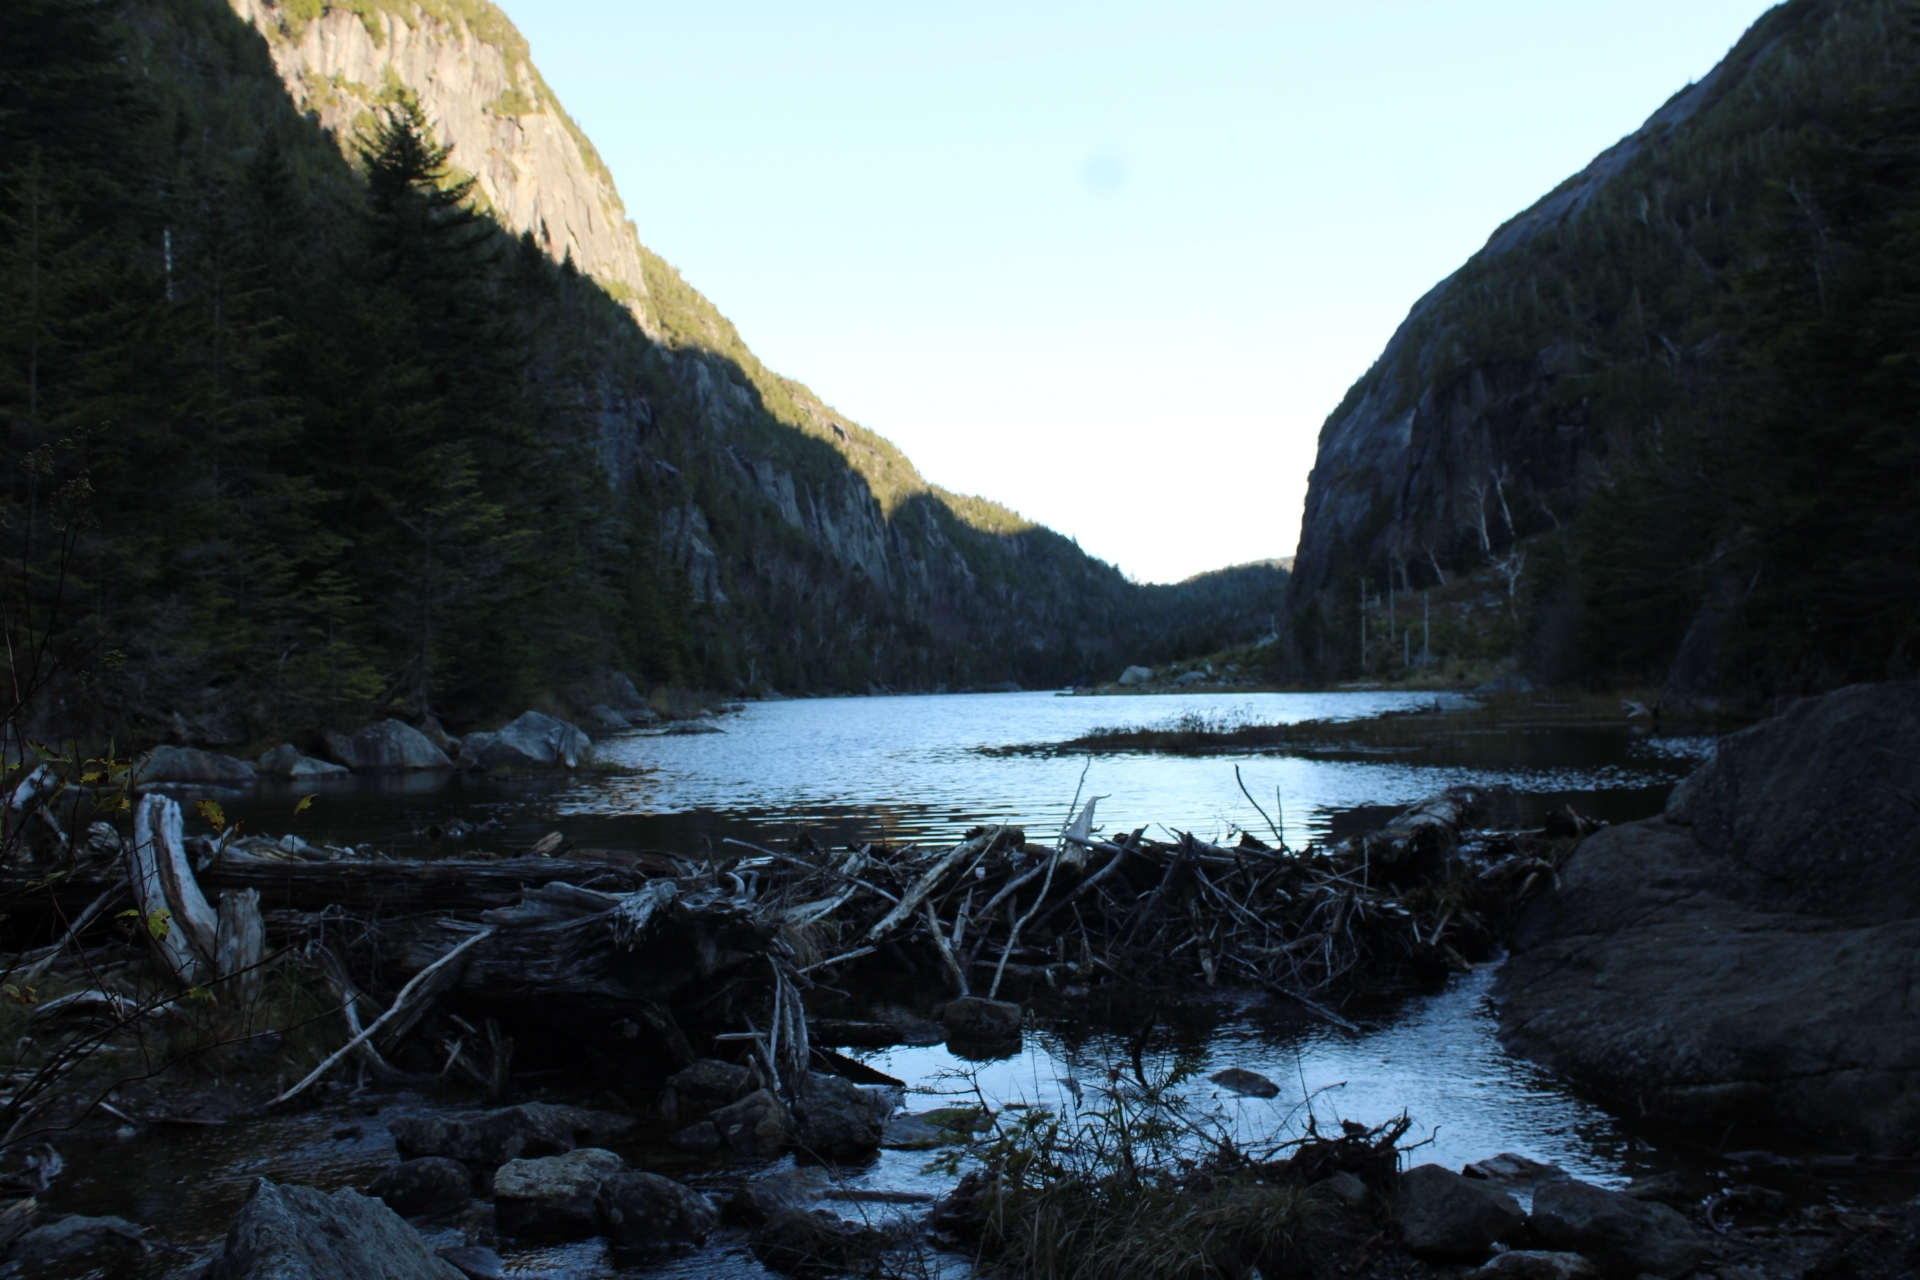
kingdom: Animalia
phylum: Chordata
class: Mammalia
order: Rodentia
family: Castoridae
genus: Castor
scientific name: Castor canadensis
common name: American beaver
